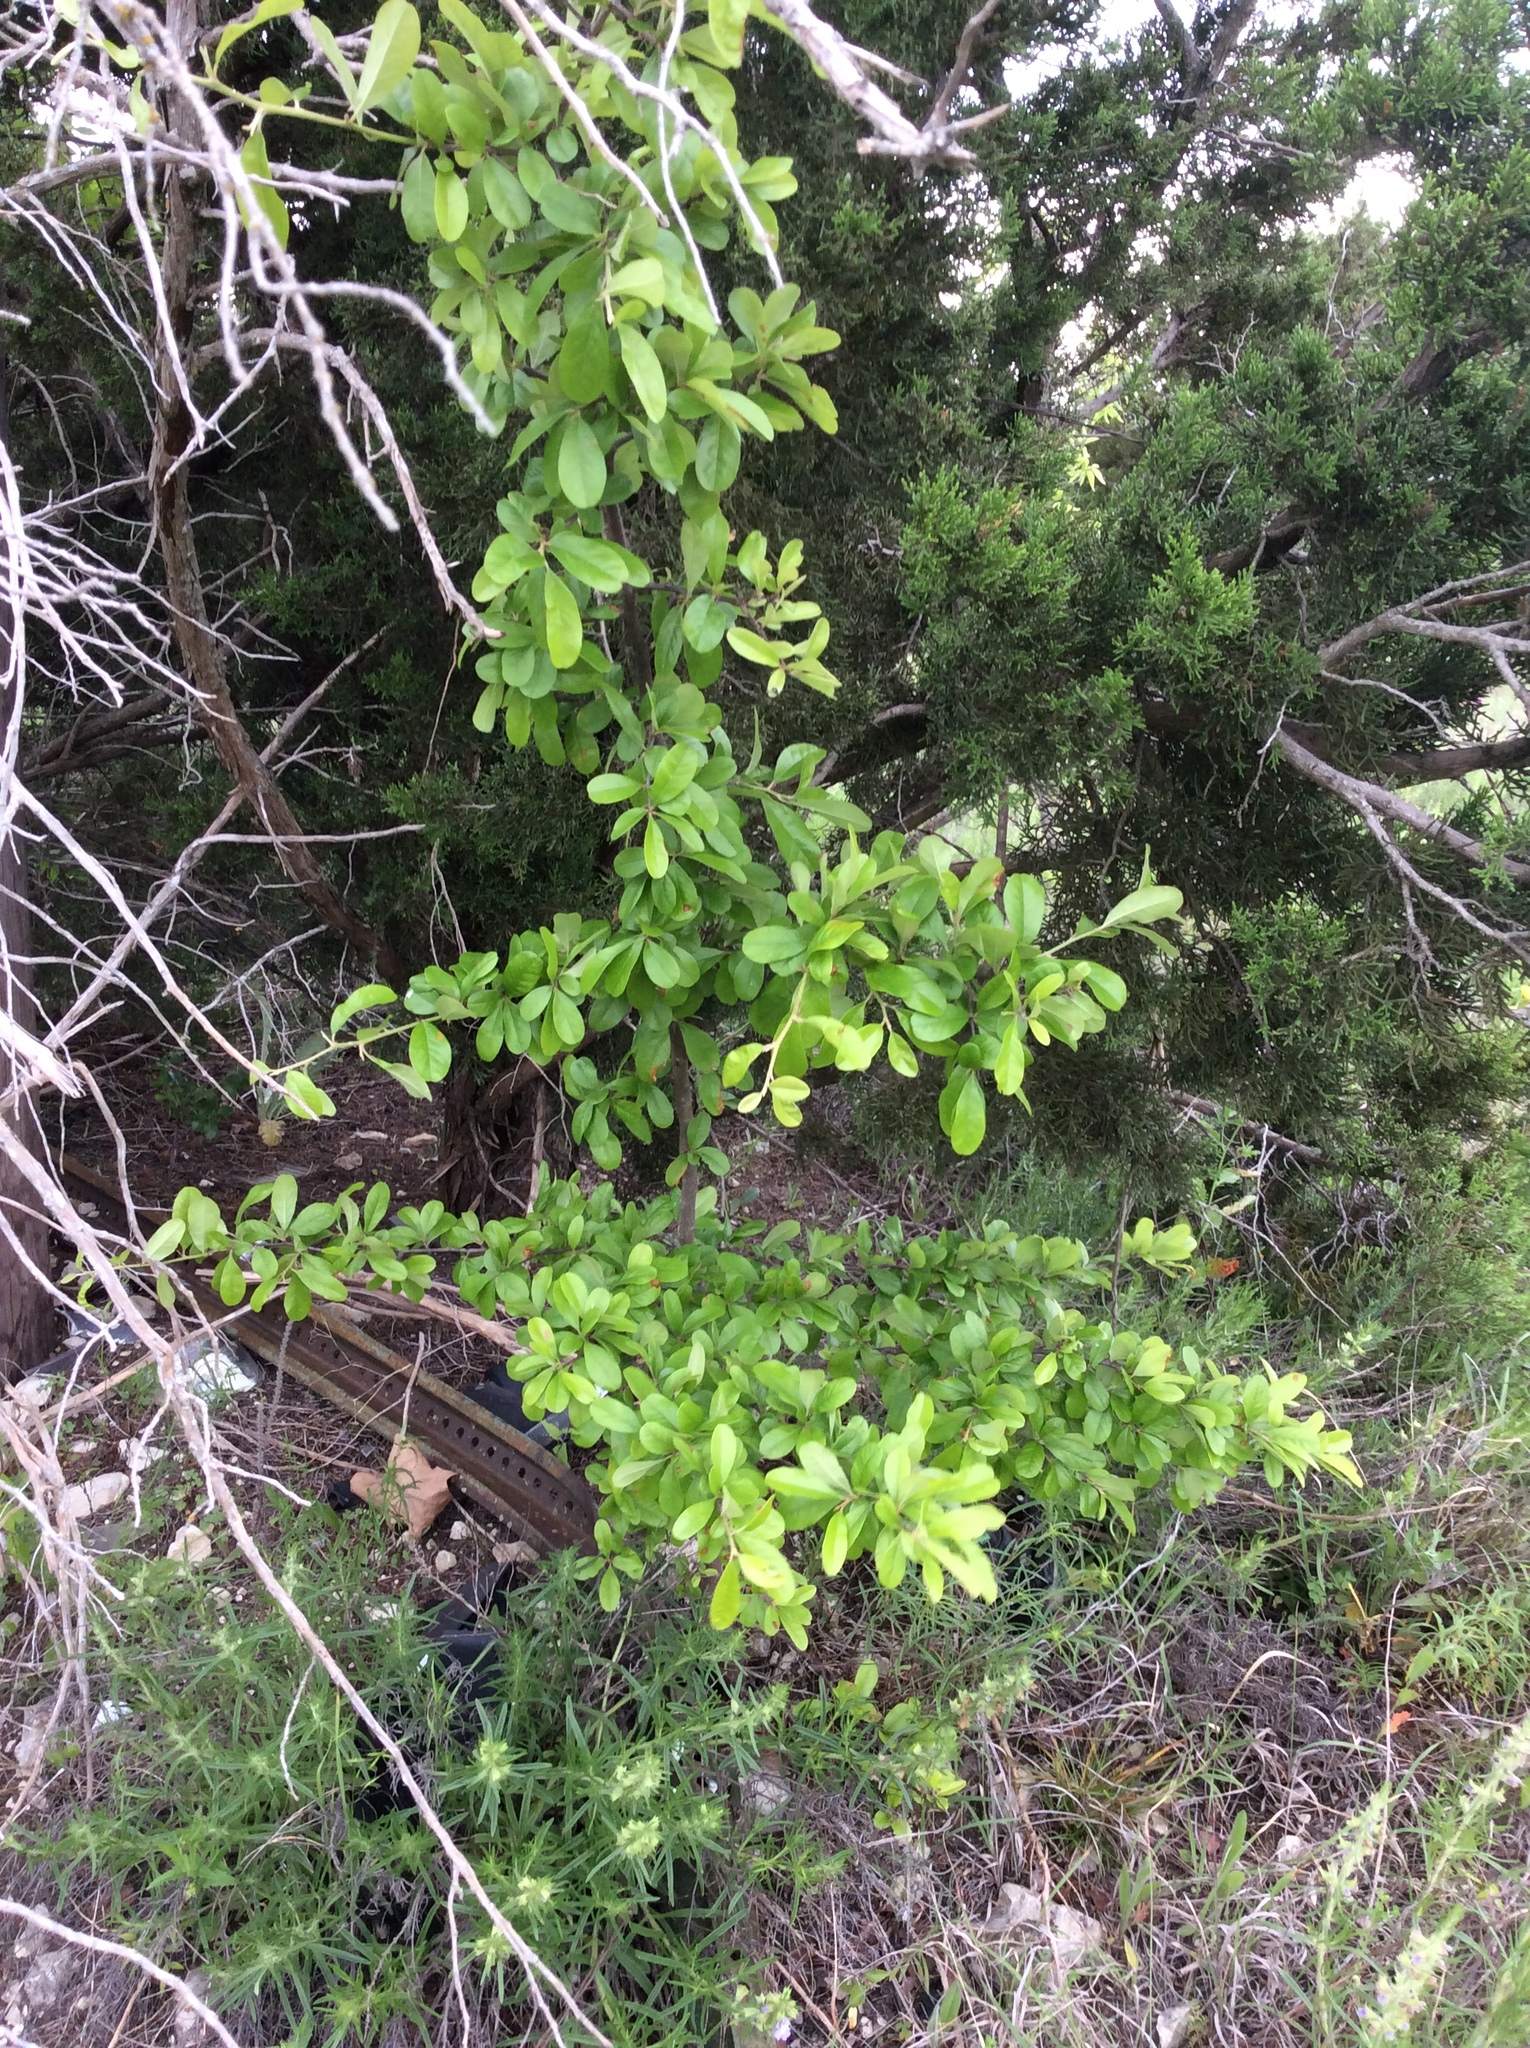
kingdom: Plantae
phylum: Tracheophyta
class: Magnoliopsida
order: Ericales
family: Sapotaceae
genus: Sideroxylon
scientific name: Sideroxylon lanuginosum
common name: Chittamwood
